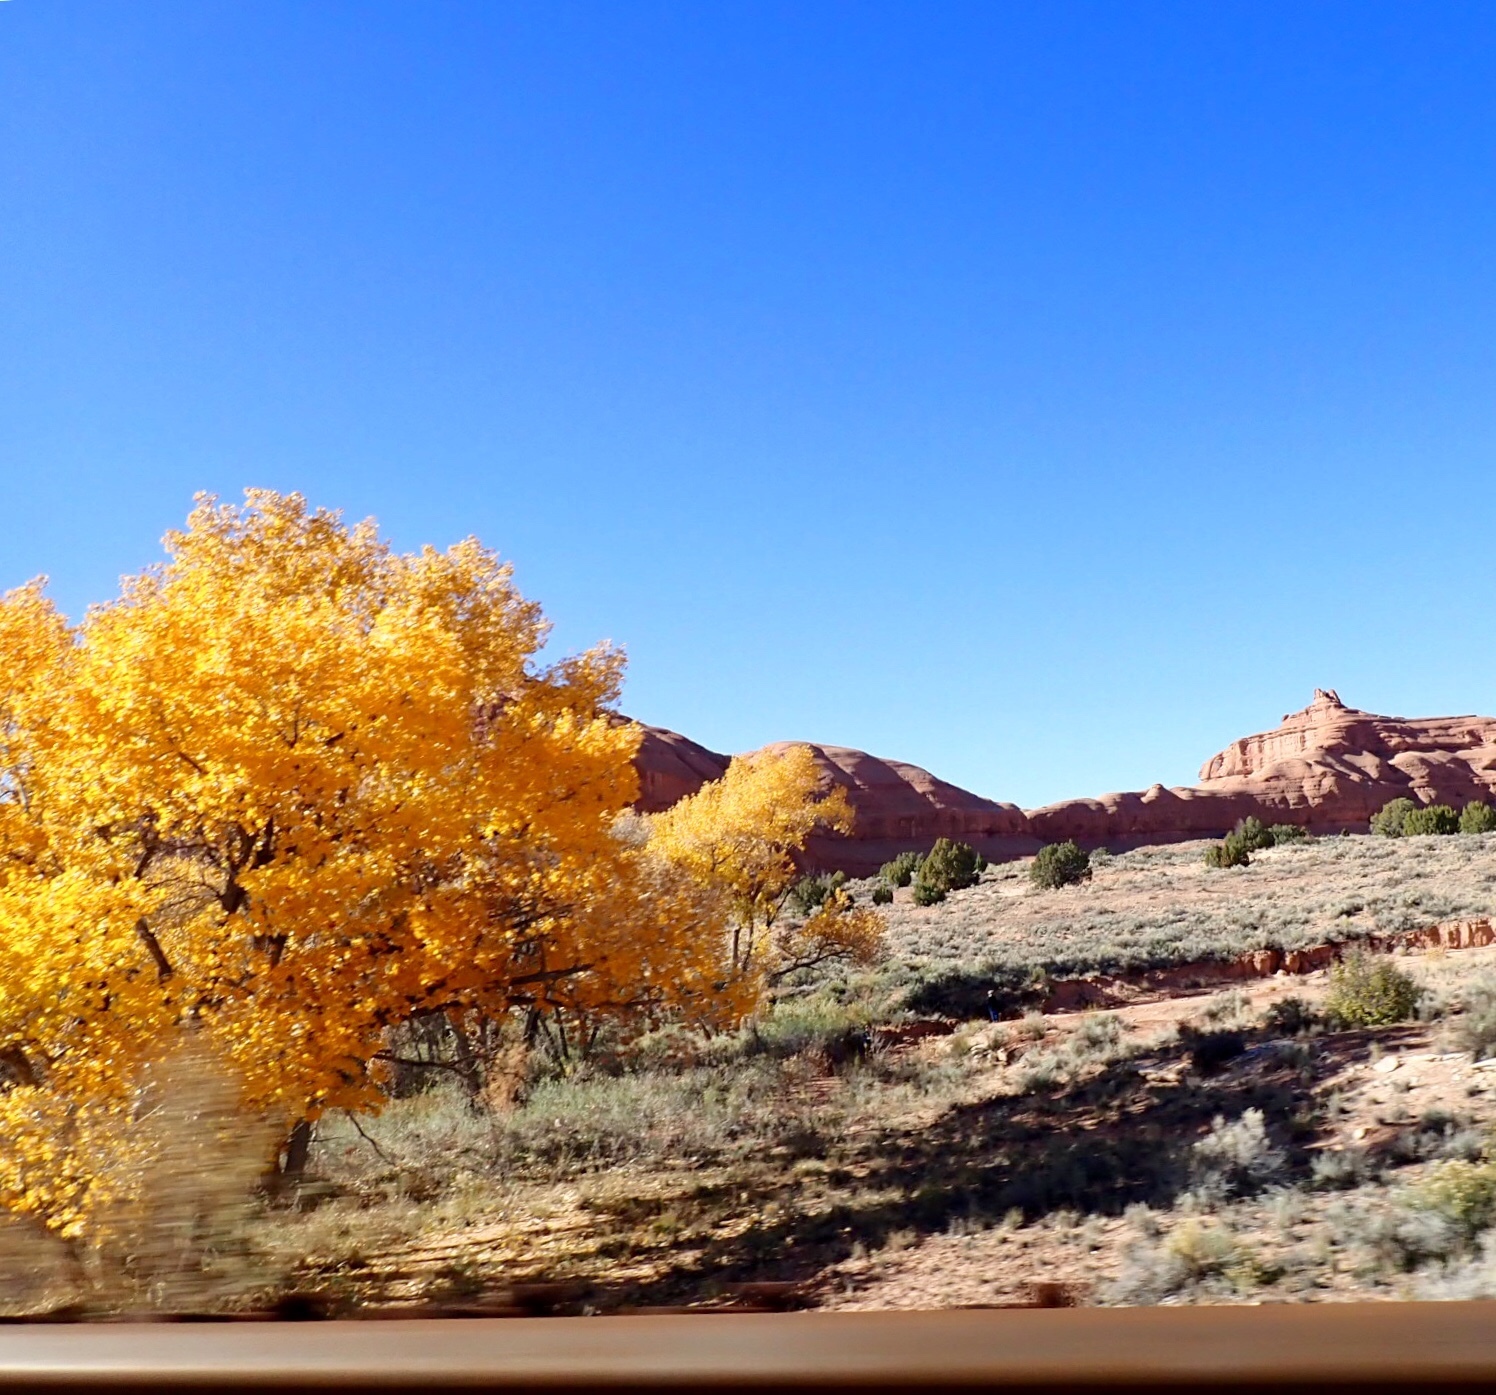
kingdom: Plantae
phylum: Tracheophyta
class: Magnoliopsida
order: Malpighiales
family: Salicaceae
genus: Populus
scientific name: Populus fremontii
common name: Fremont's cottonwood
